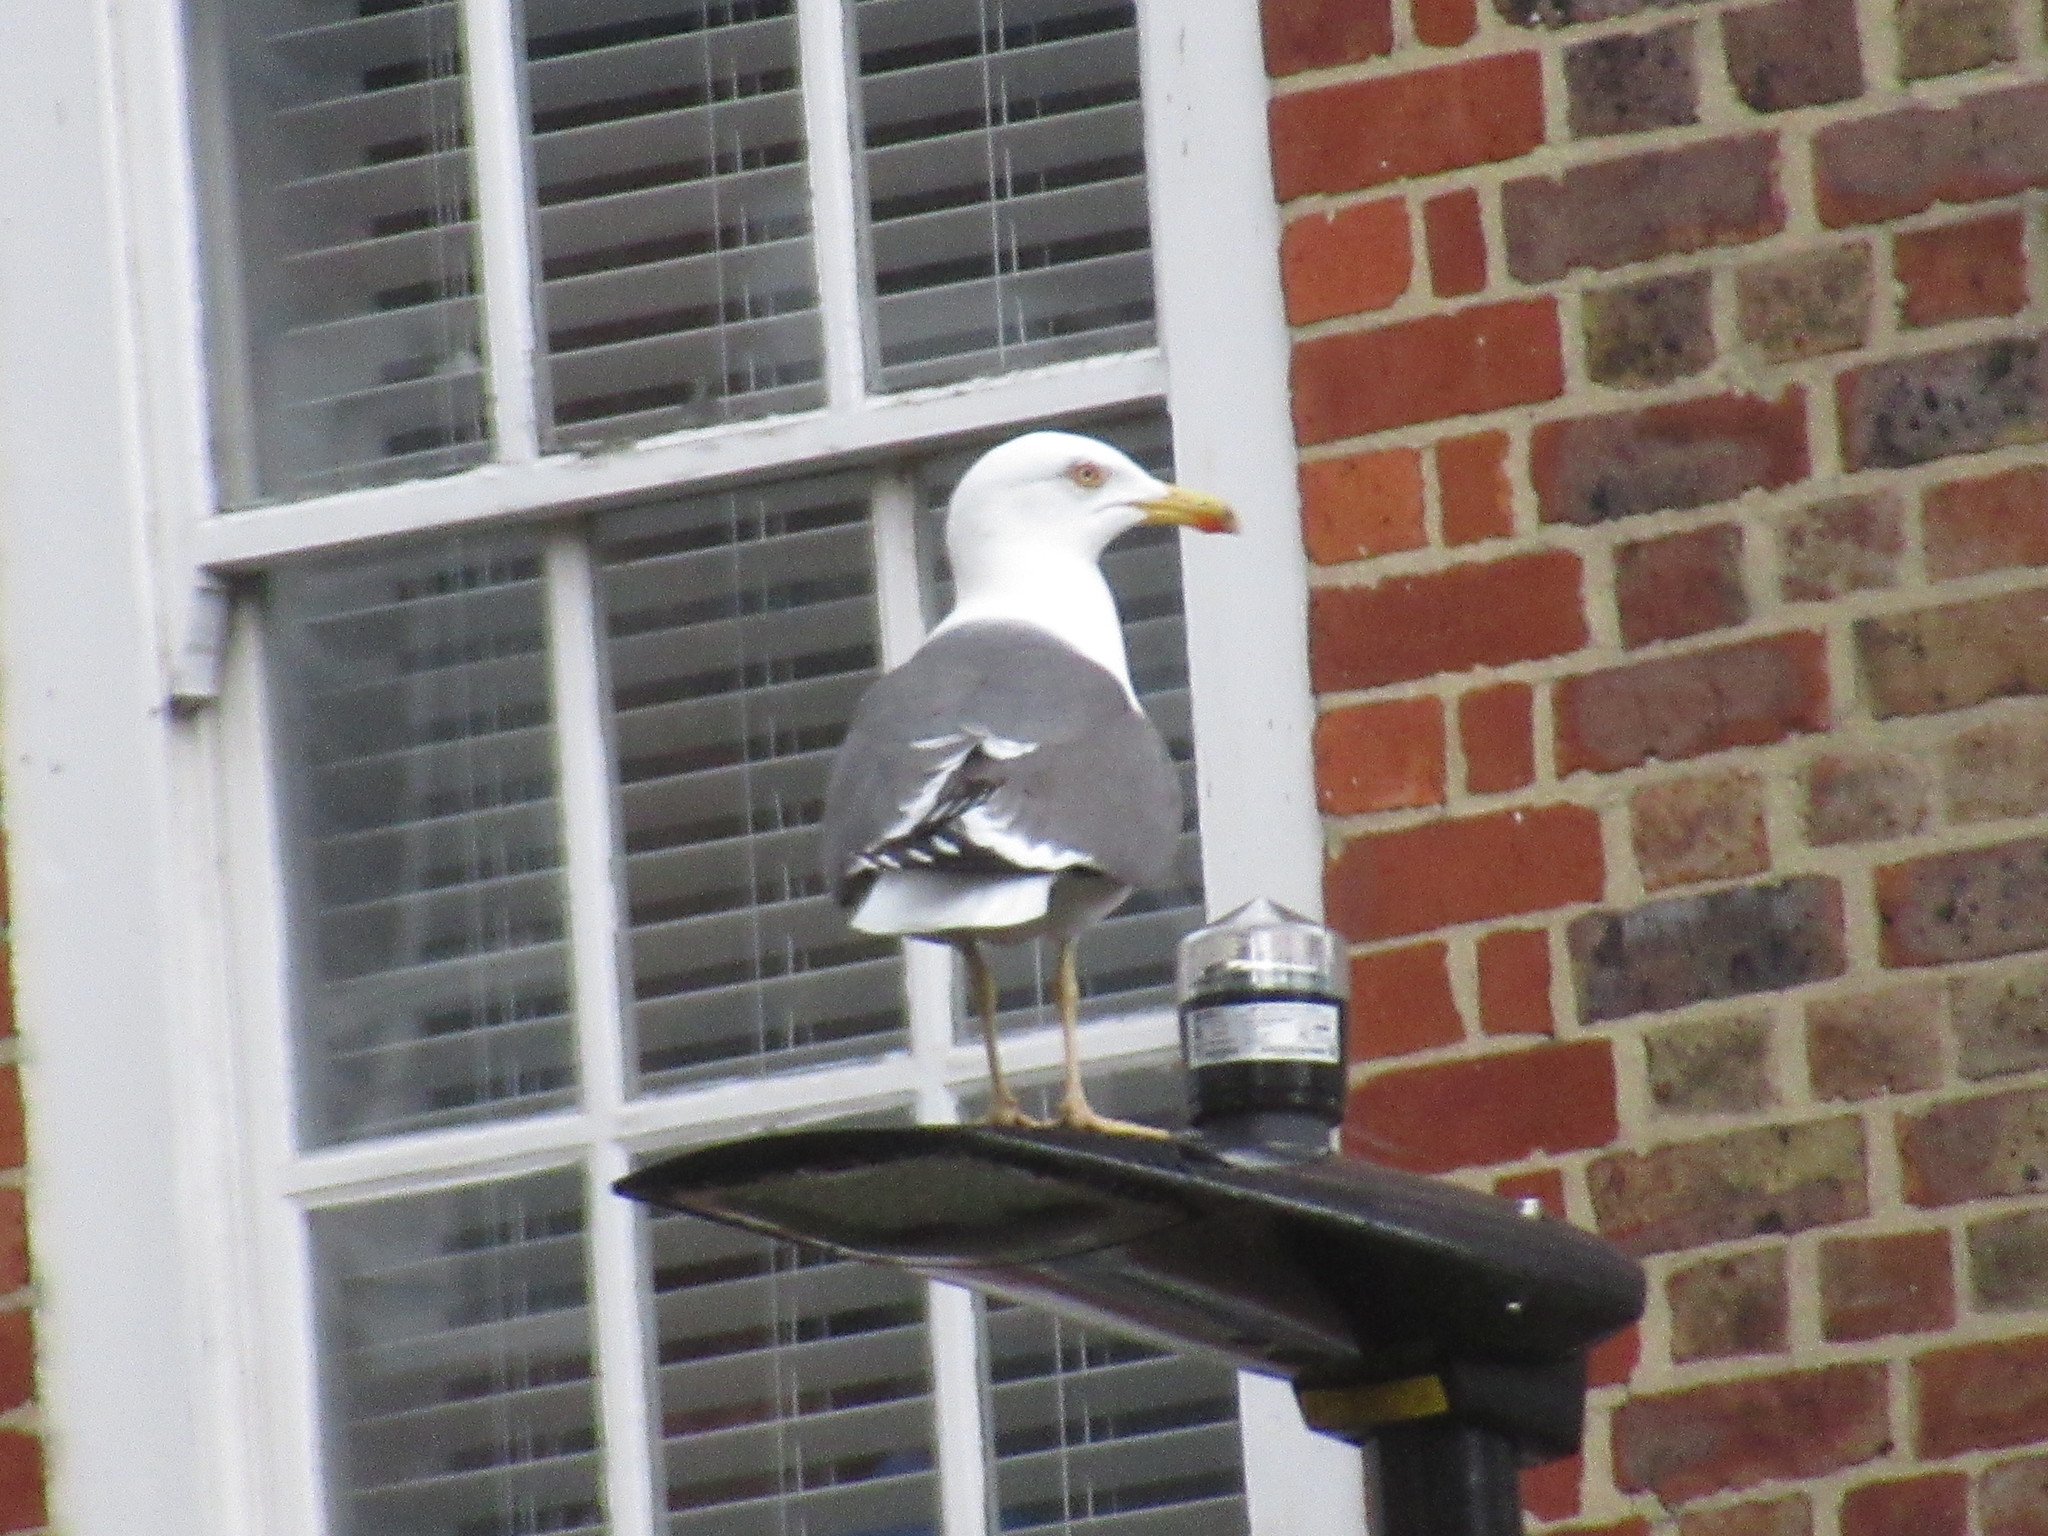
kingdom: Animalia
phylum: Chordata
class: Aves
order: Charadriiformes
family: Laridae
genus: Larus
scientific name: Larus fuscus
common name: Lesser black-backed gull
